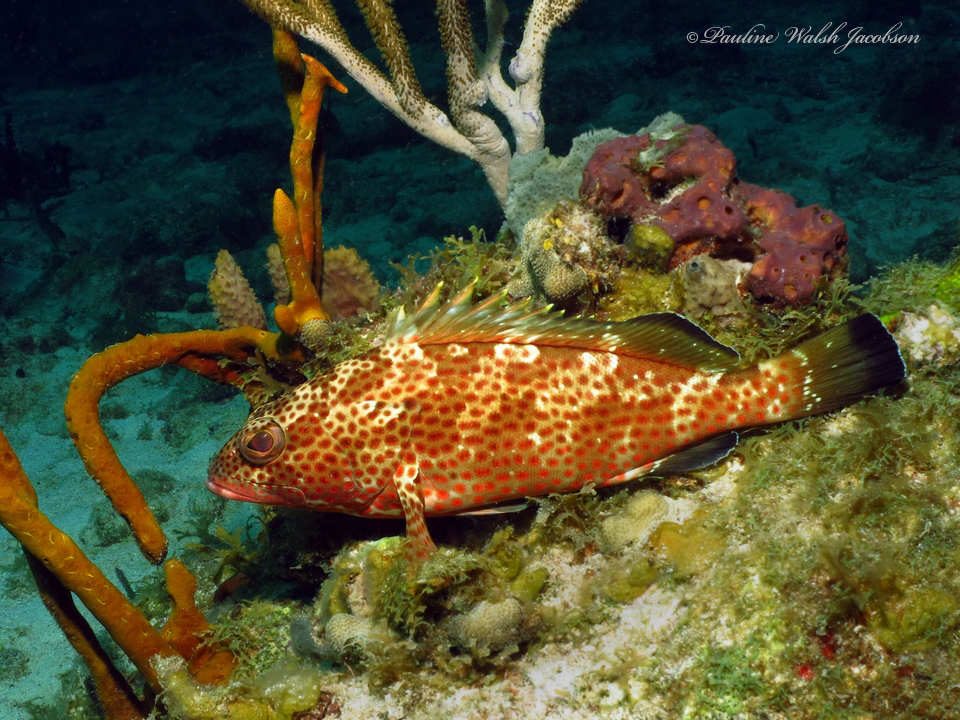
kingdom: Animalia
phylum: Chordata
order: Perciformes
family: Serranidae
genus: Epinephelus
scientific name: Epinephelus guttatus
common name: Red hind
